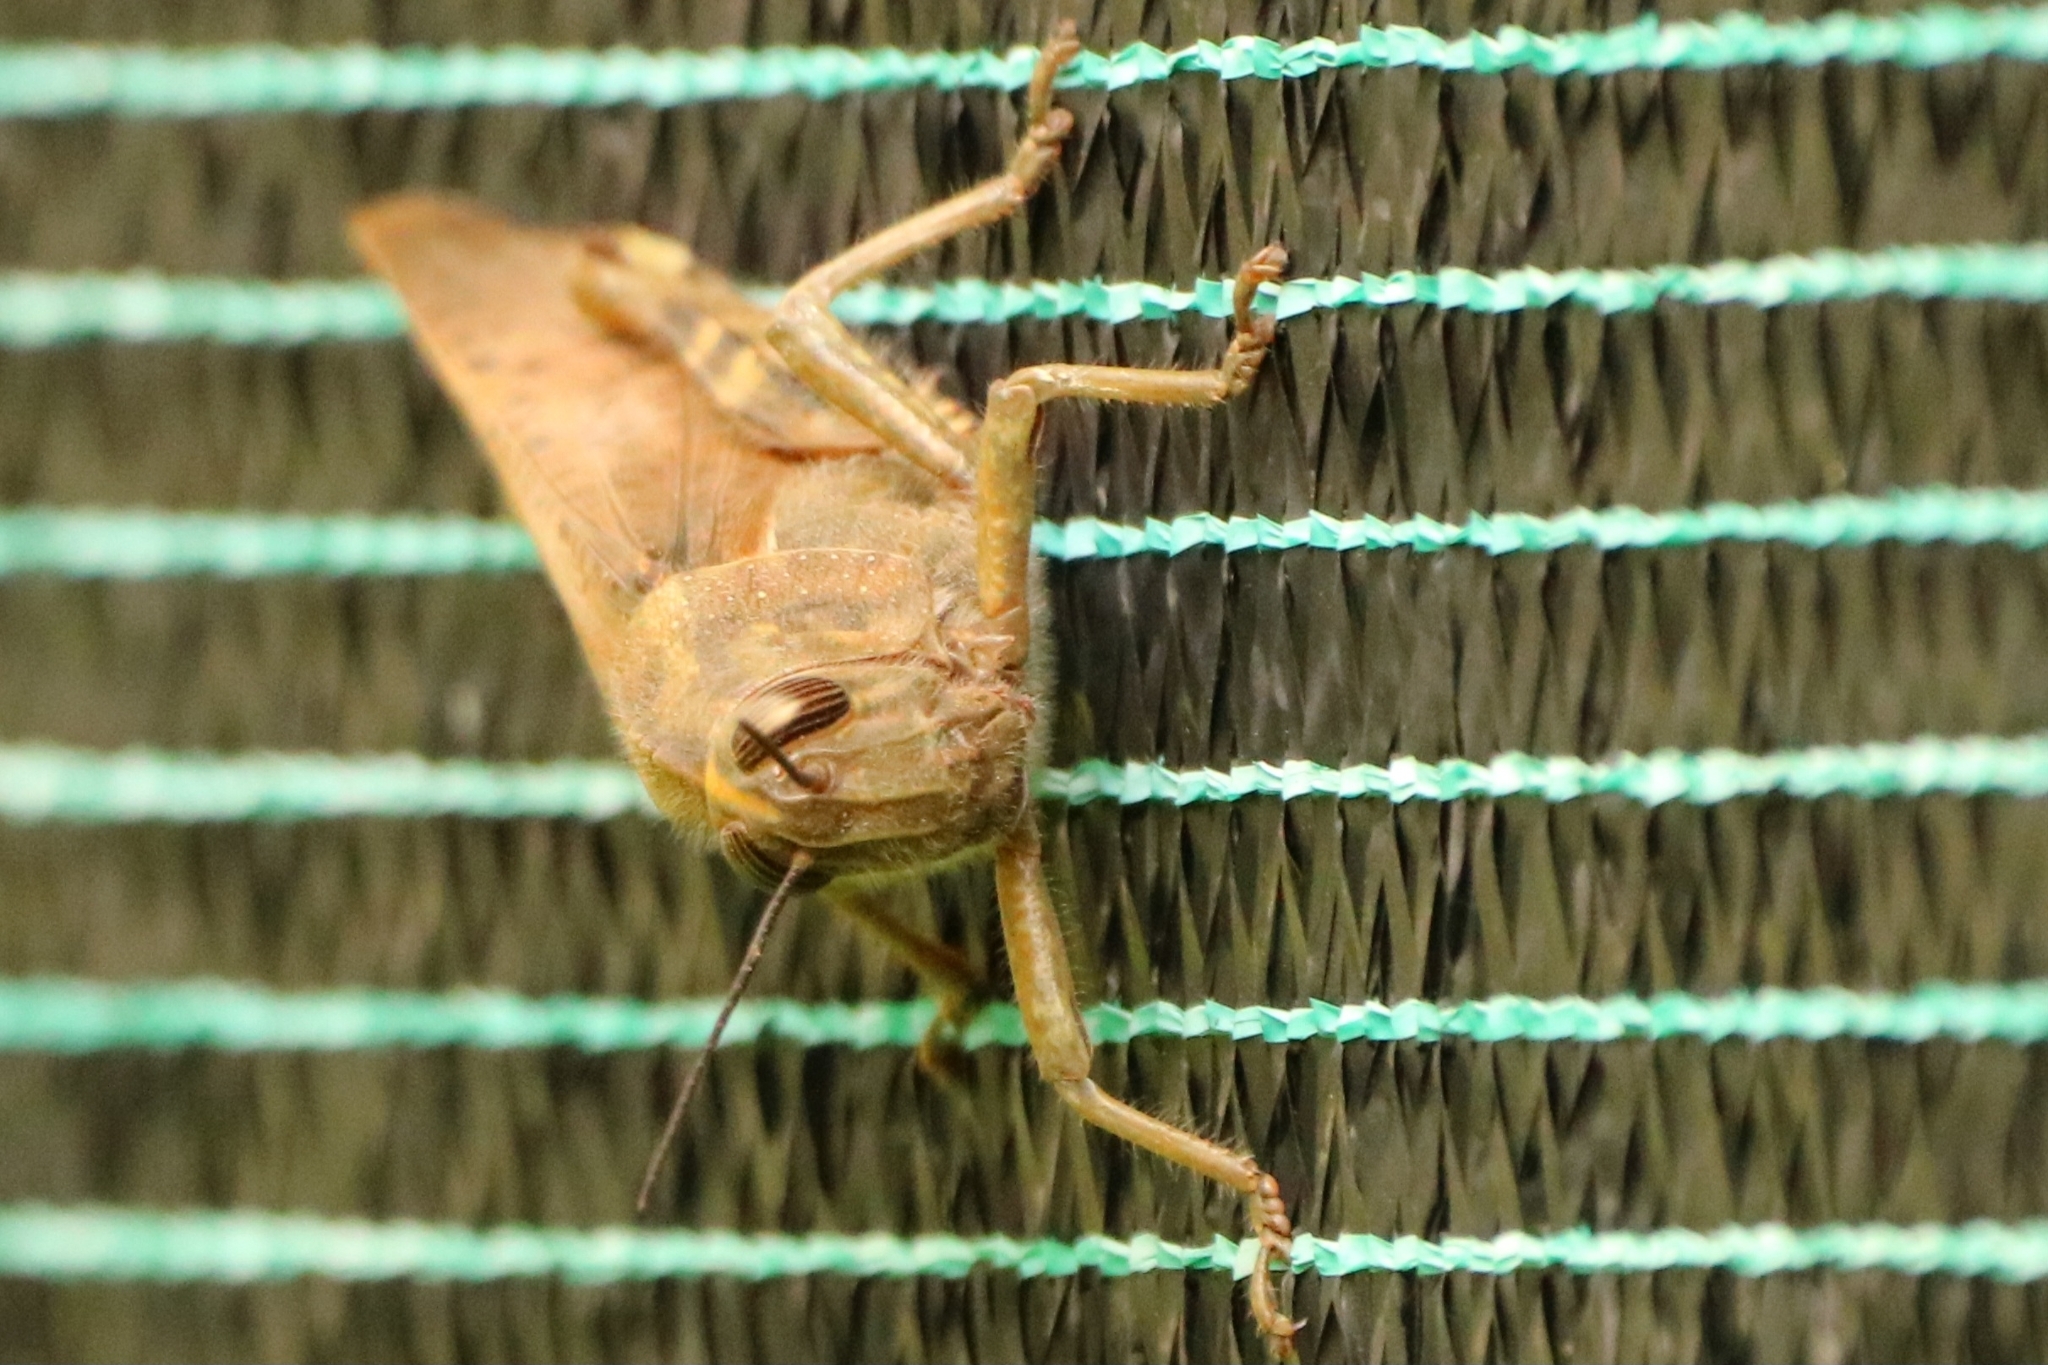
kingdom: Animalia
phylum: Arthropoda
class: Insecta
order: Orthoptera
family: Acrididae
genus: Anacridium
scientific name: Anacridium aegyptium
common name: Egyptian grasshopper
